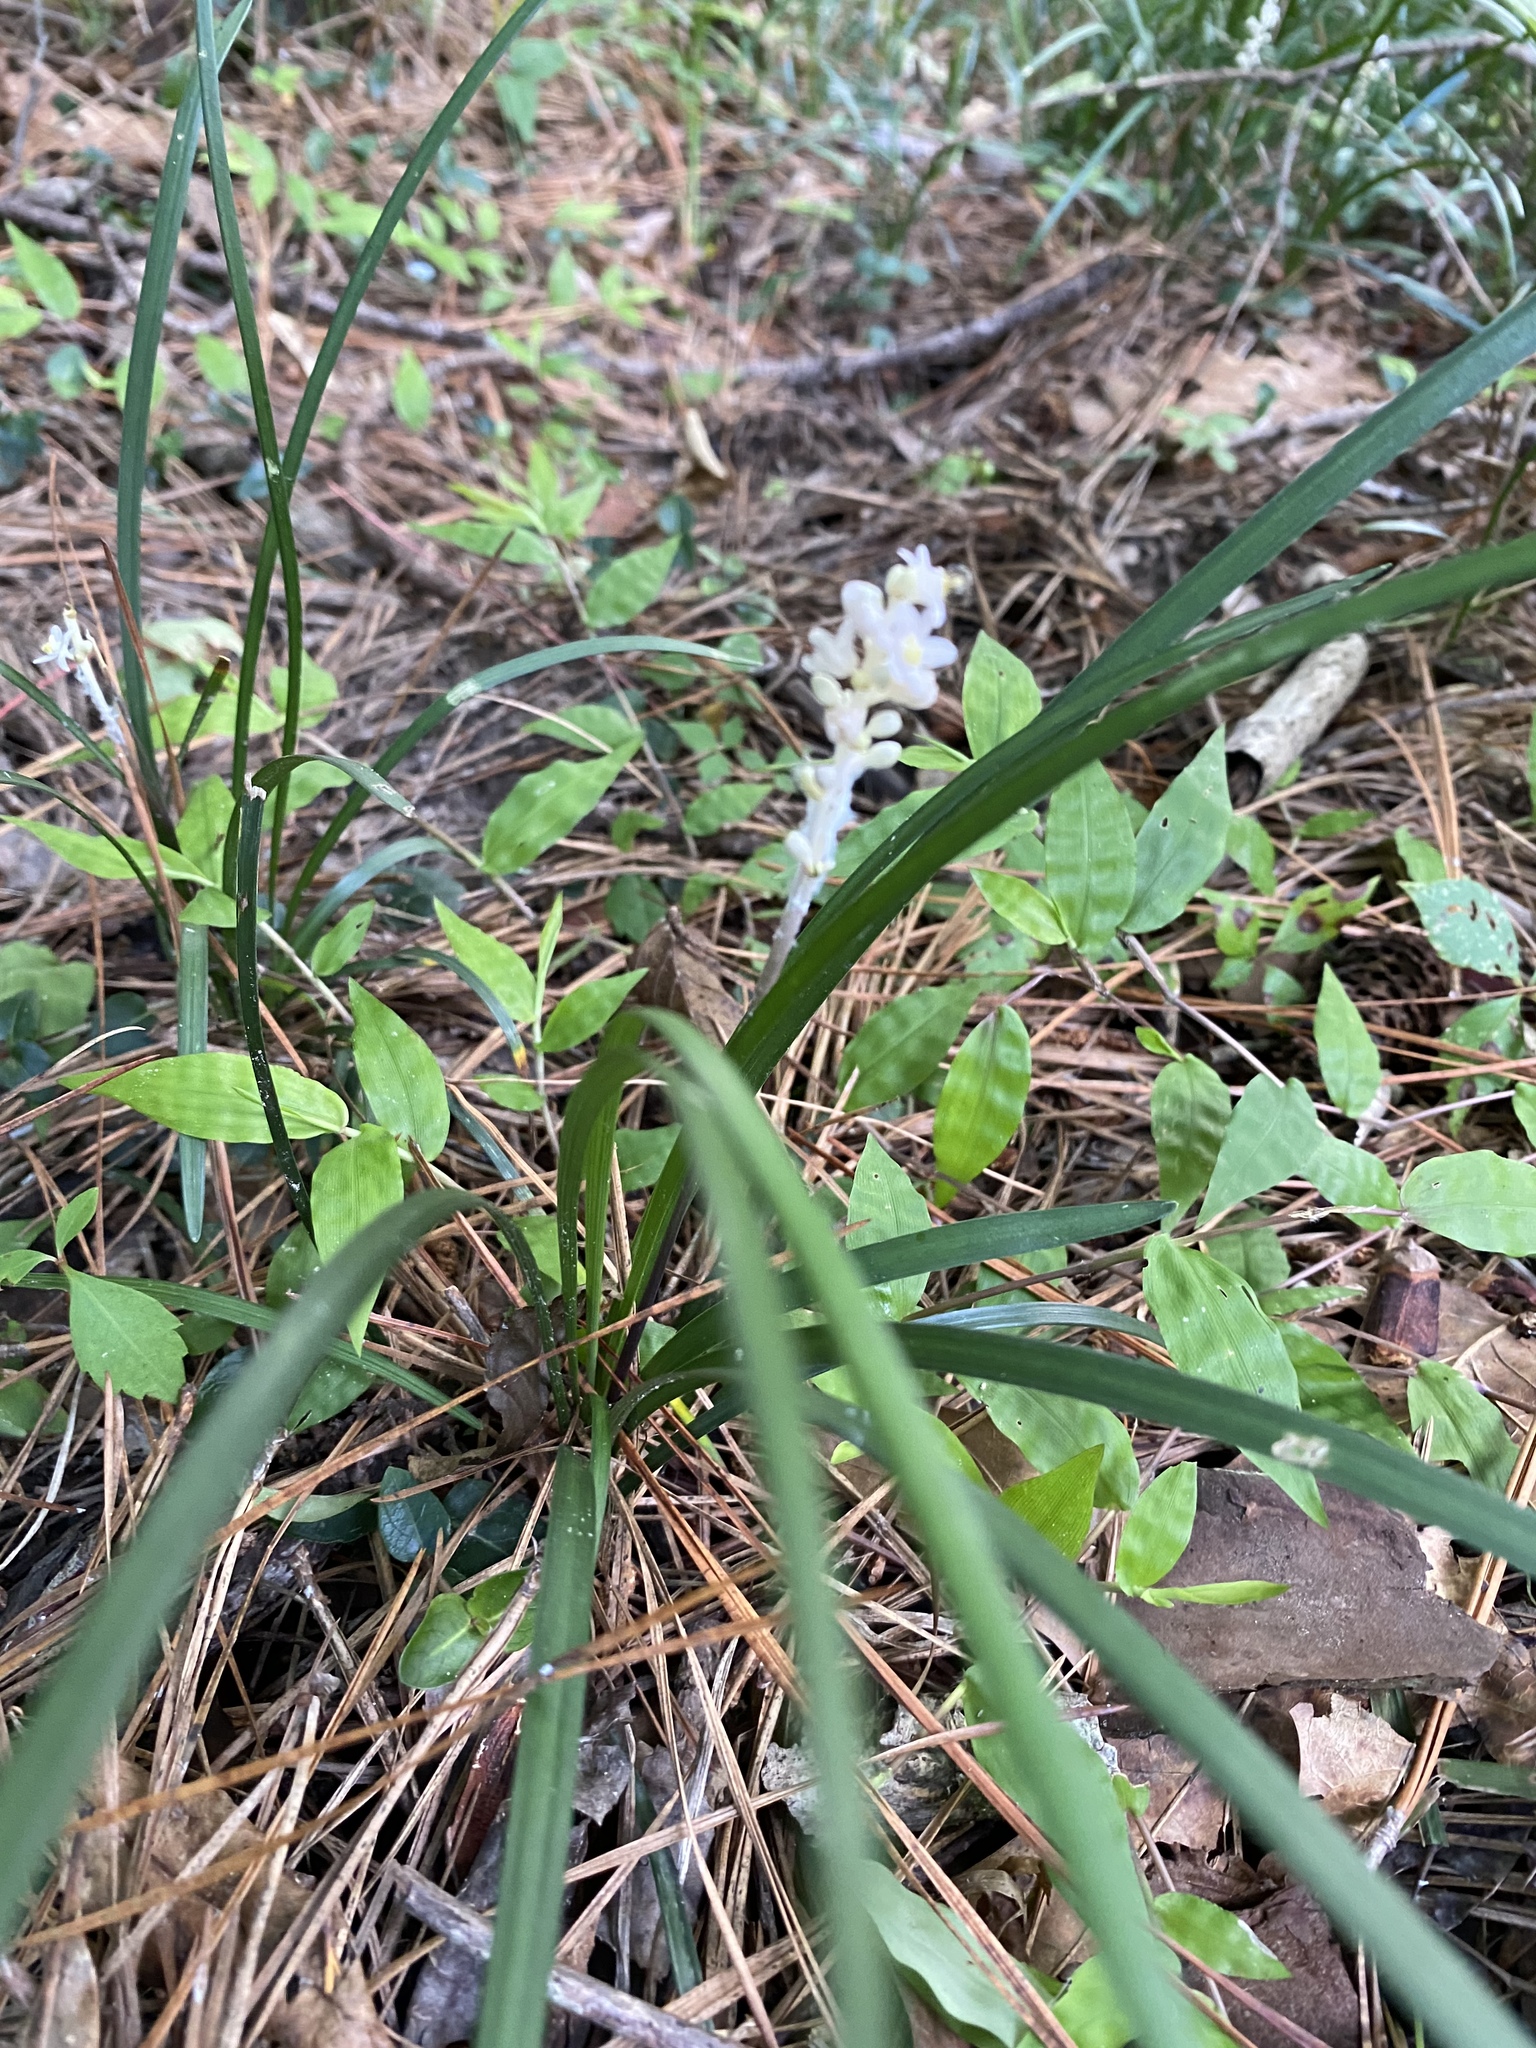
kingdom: Plantae
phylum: Tracheophyta
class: Liliopsida
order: Asparagales
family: Asparagaceae
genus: Liriope
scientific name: Liriope muscari
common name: Big blue lilyturf
